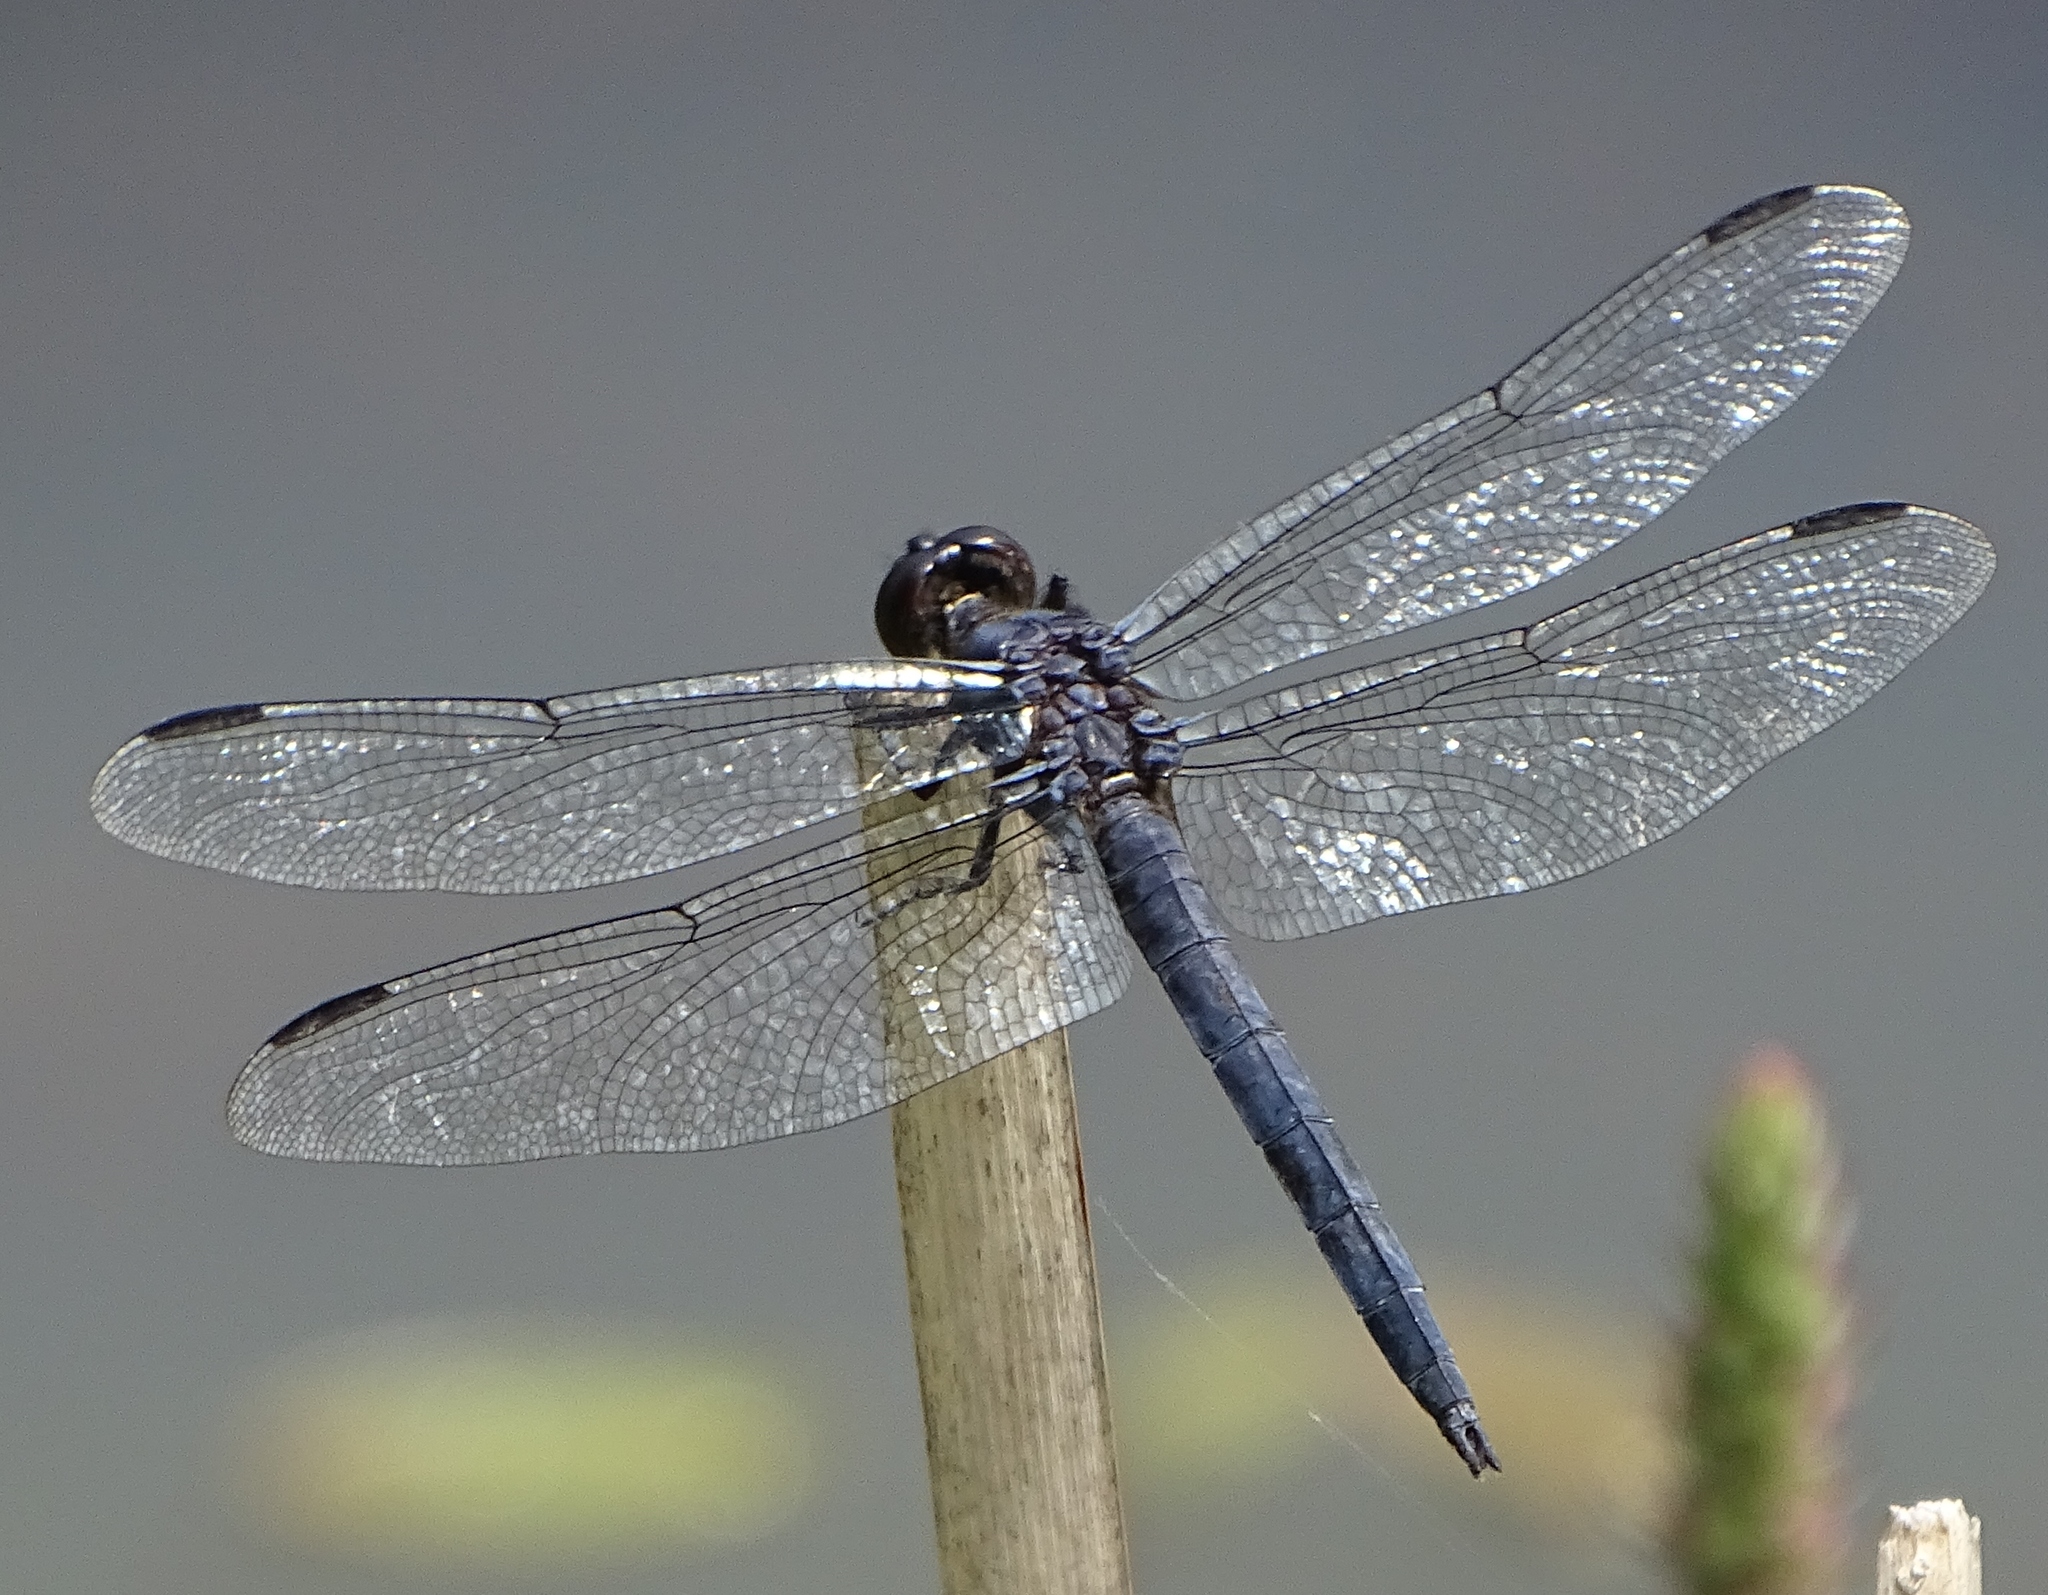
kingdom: Animalia
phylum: Arthropoda
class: Insecta
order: Odonata
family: Libellulidae
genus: Libellula
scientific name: Libellula incesta
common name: Slaty skimmer
